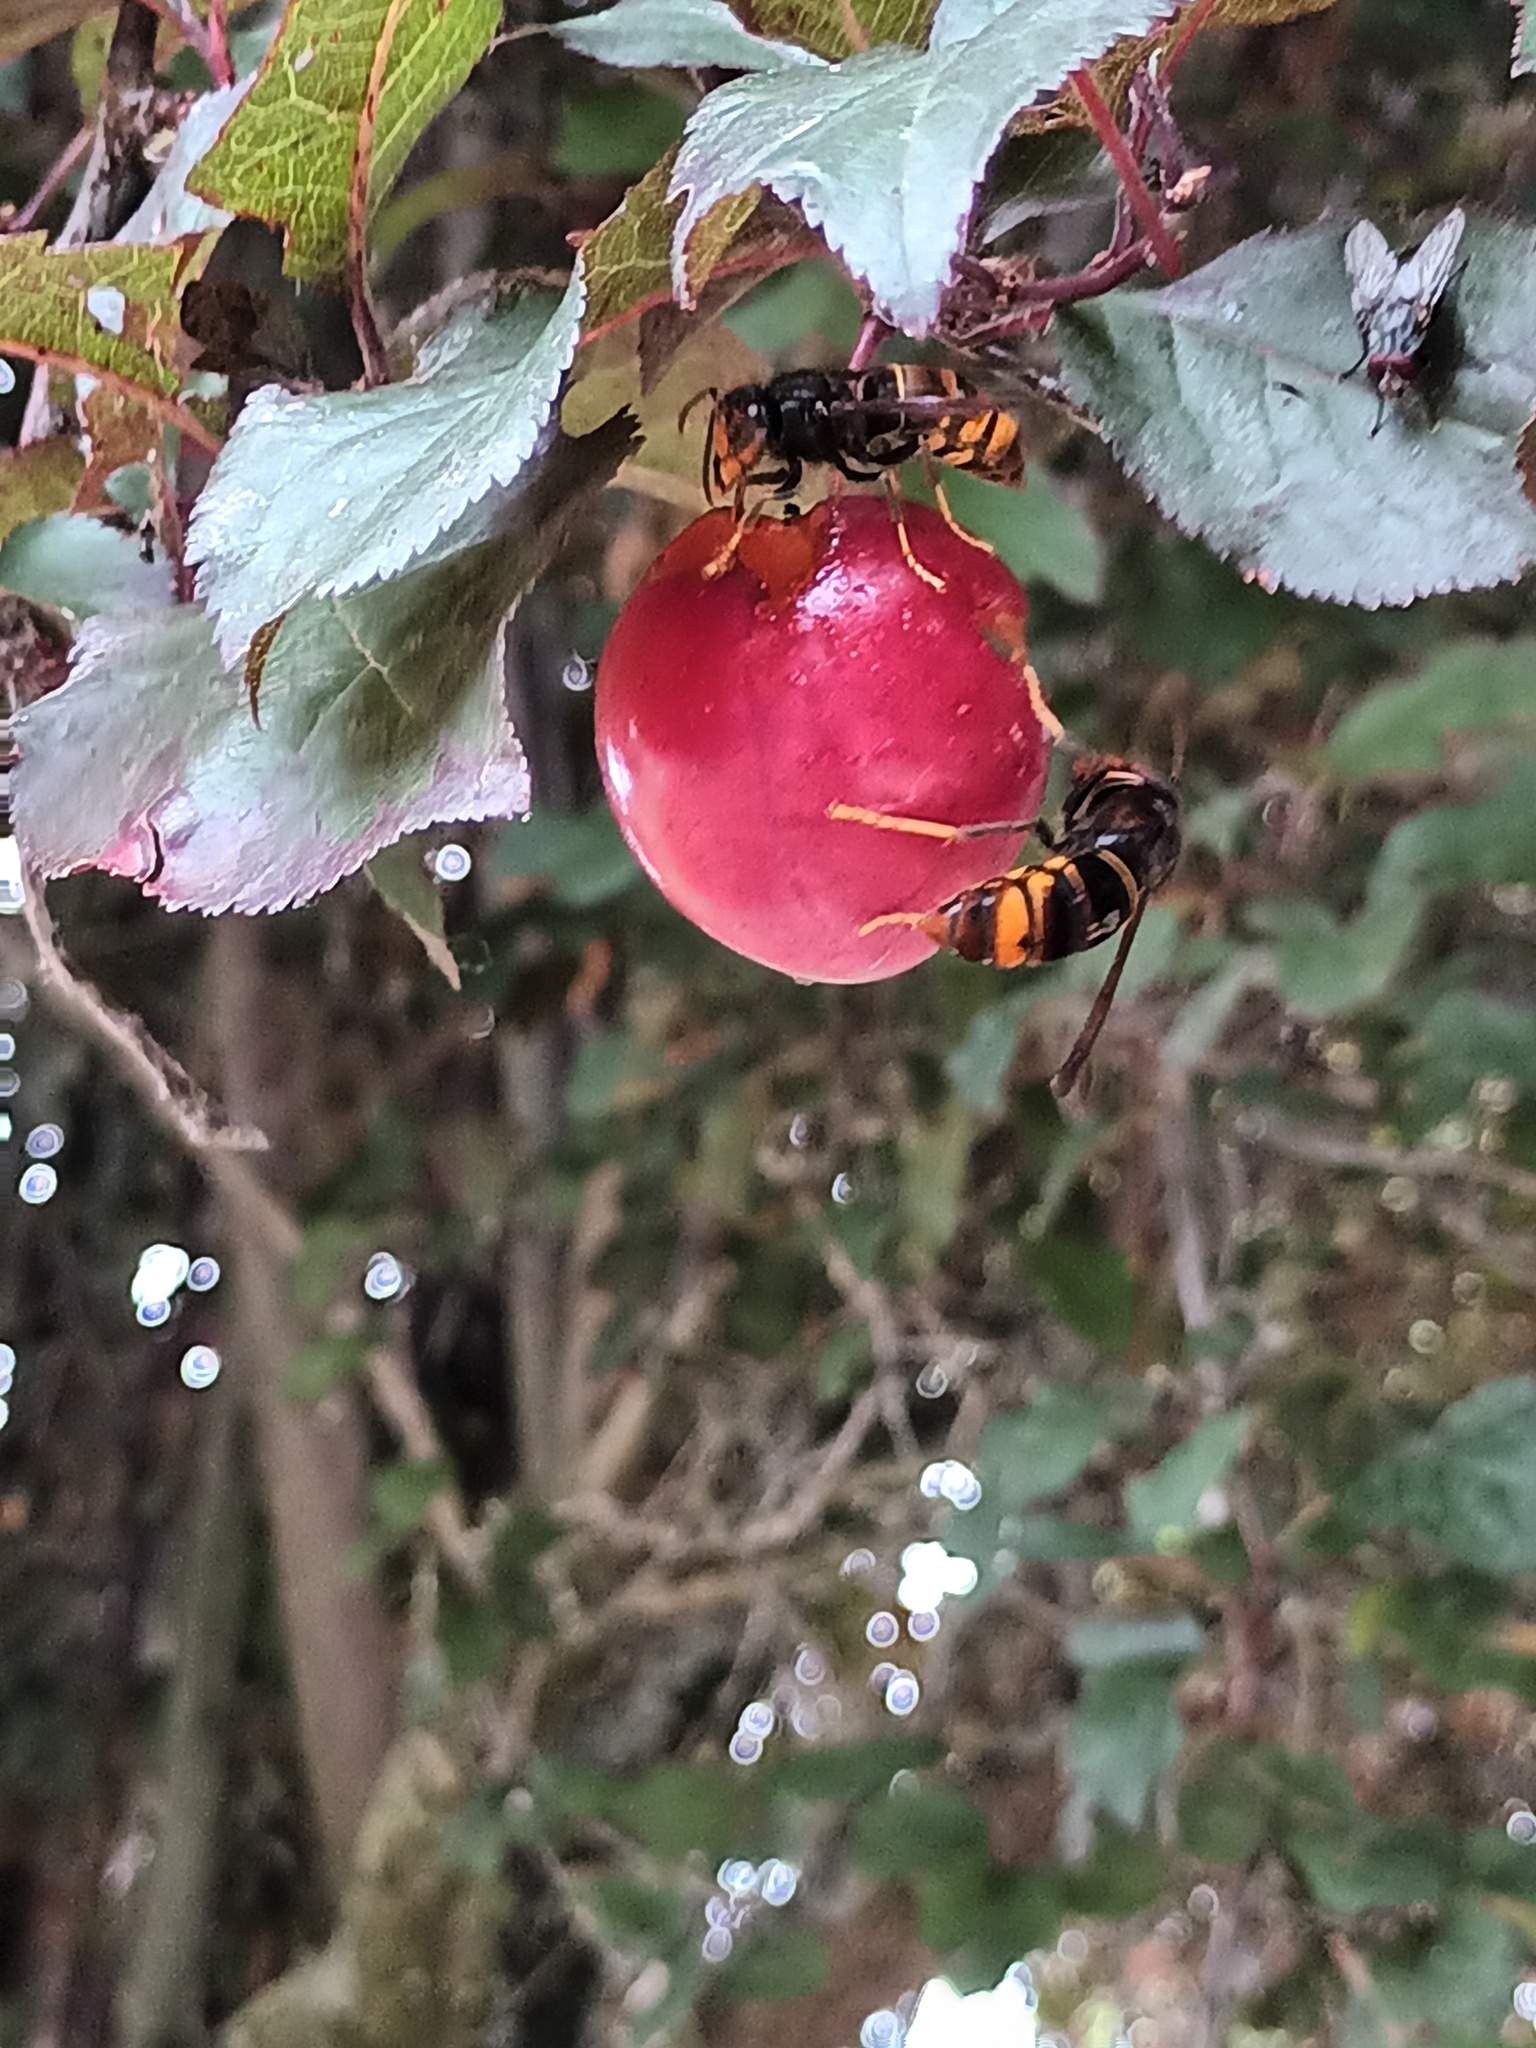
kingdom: Animalia
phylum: Arthropoda
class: Insecta
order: Hymenoptera
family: Vespidae
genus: Vespa
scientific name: Vespa velutina
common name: Asian hornet
